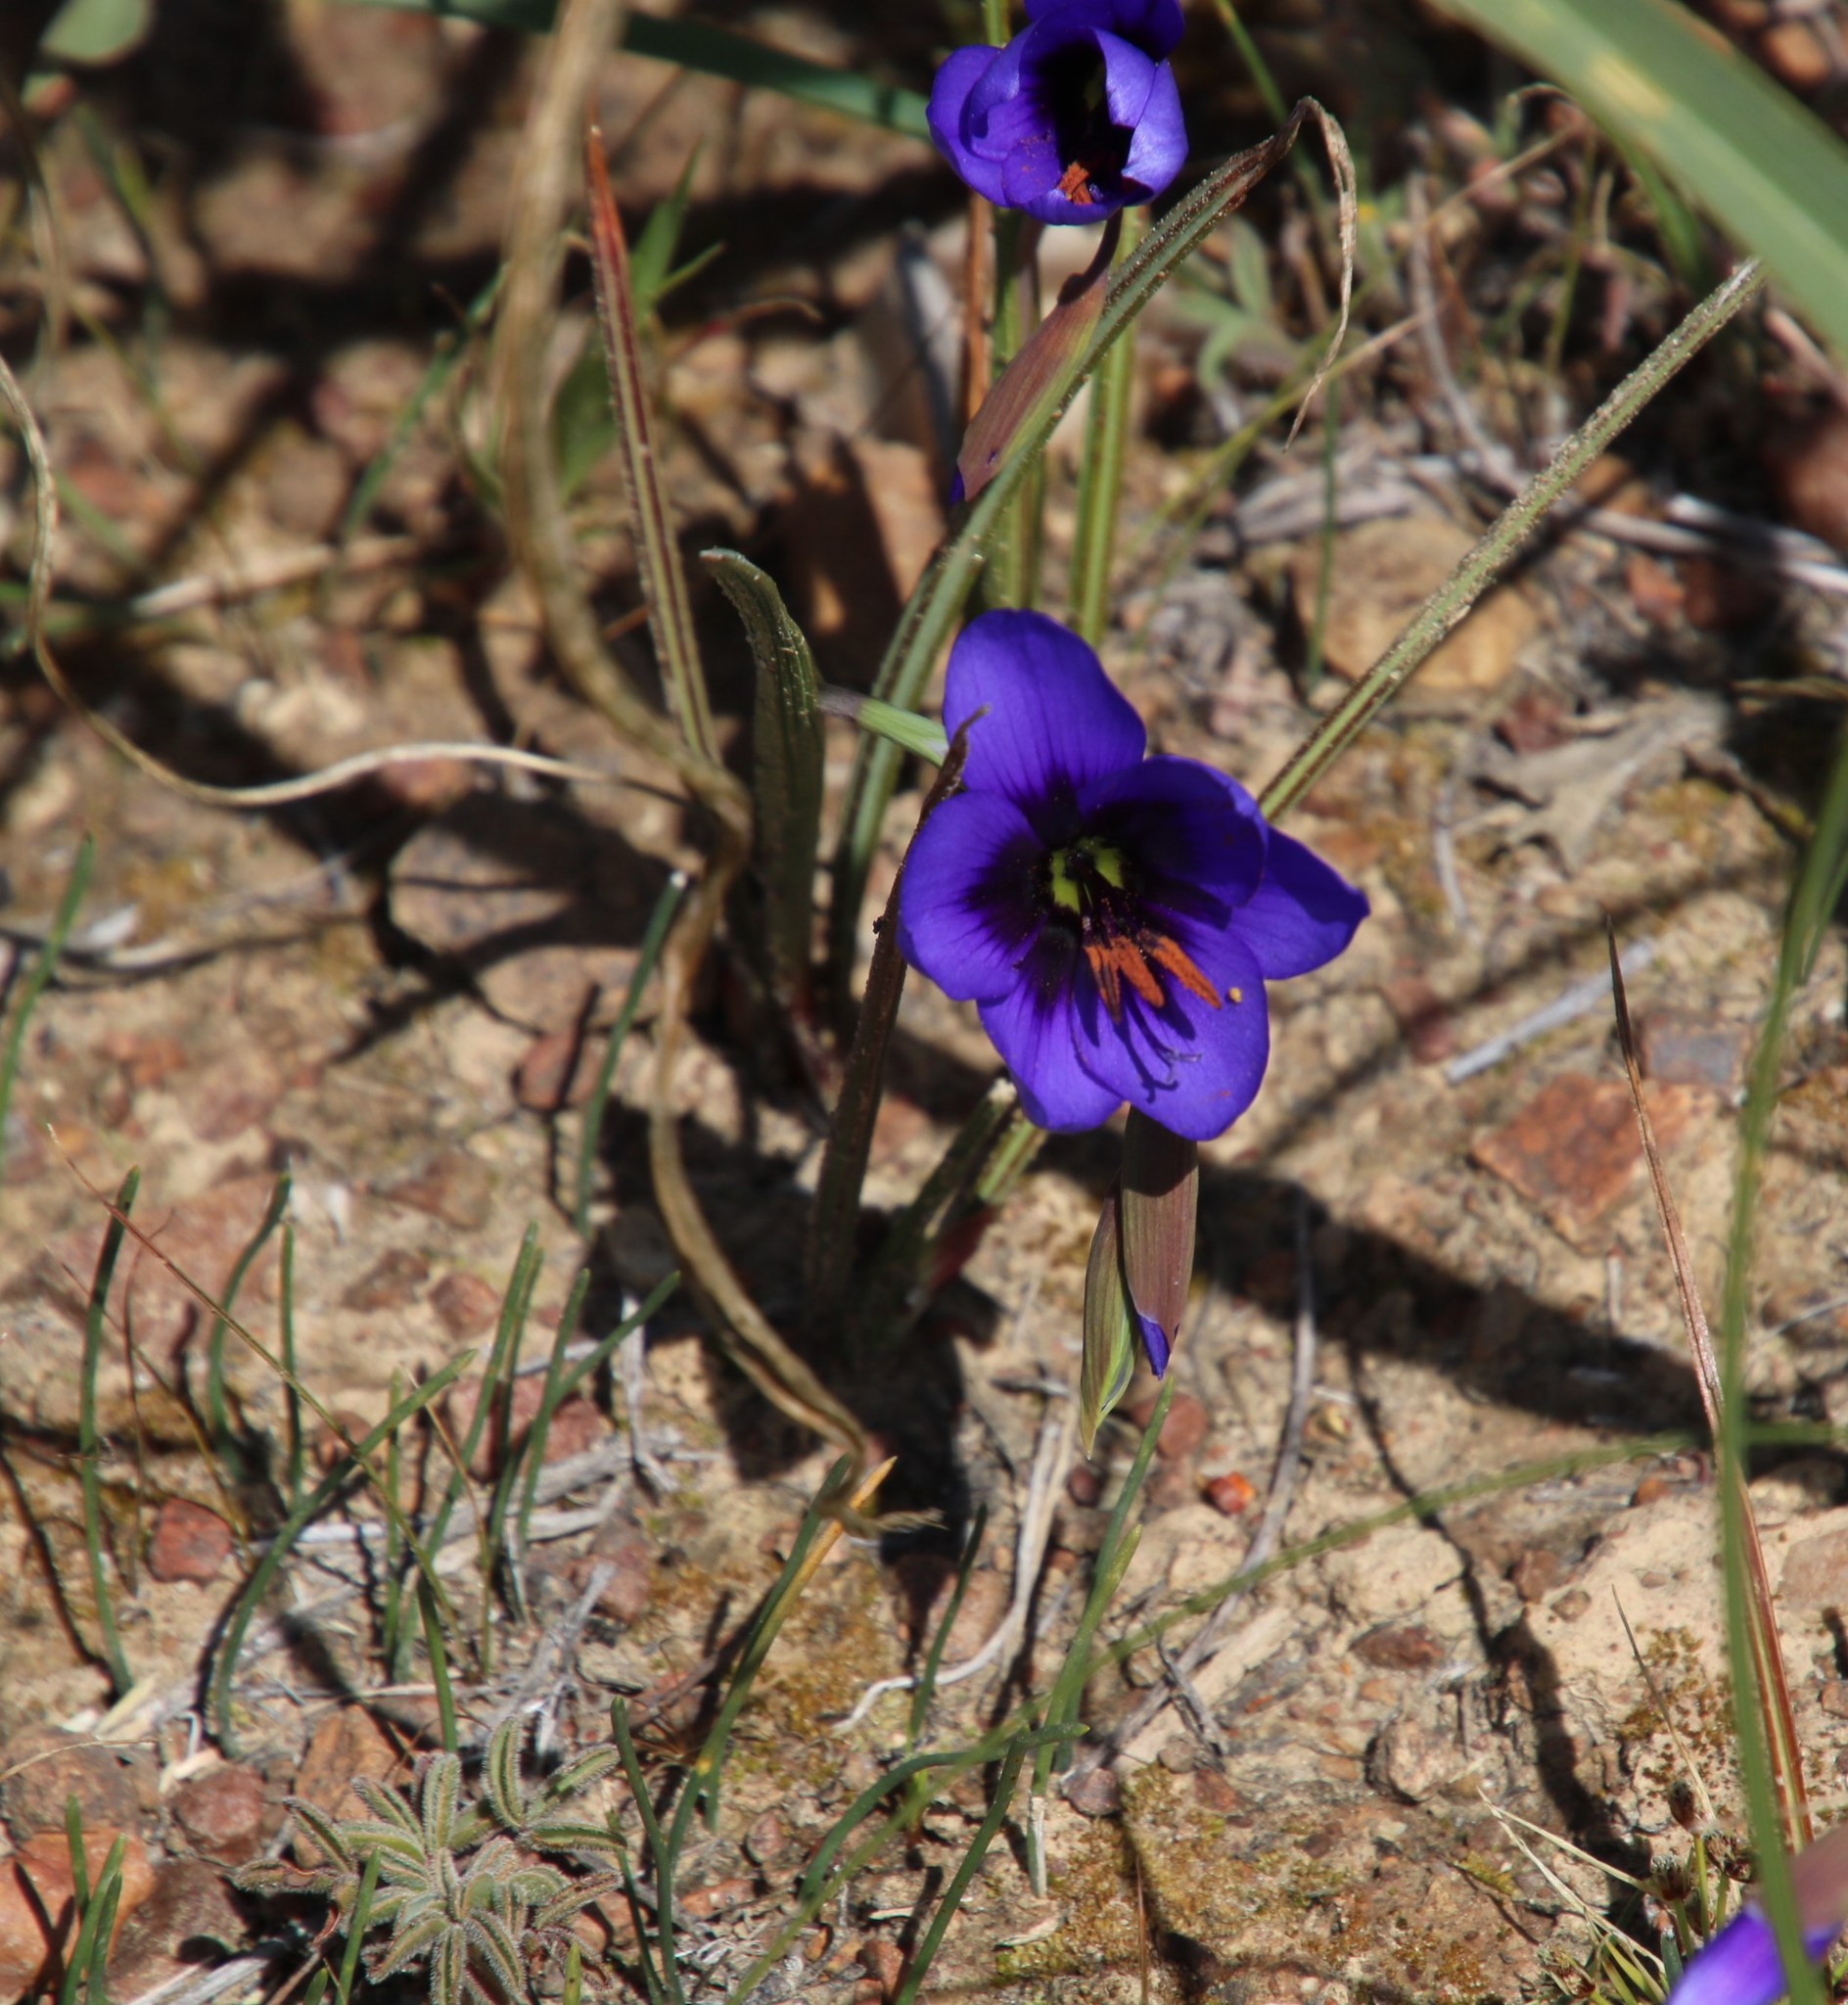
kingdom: Plantae
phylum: Tracheophyta
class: Liliopsida
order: Asparagales
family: Iridaceae
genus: Geissorhiza
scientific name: Geissorhiza splendidissima
